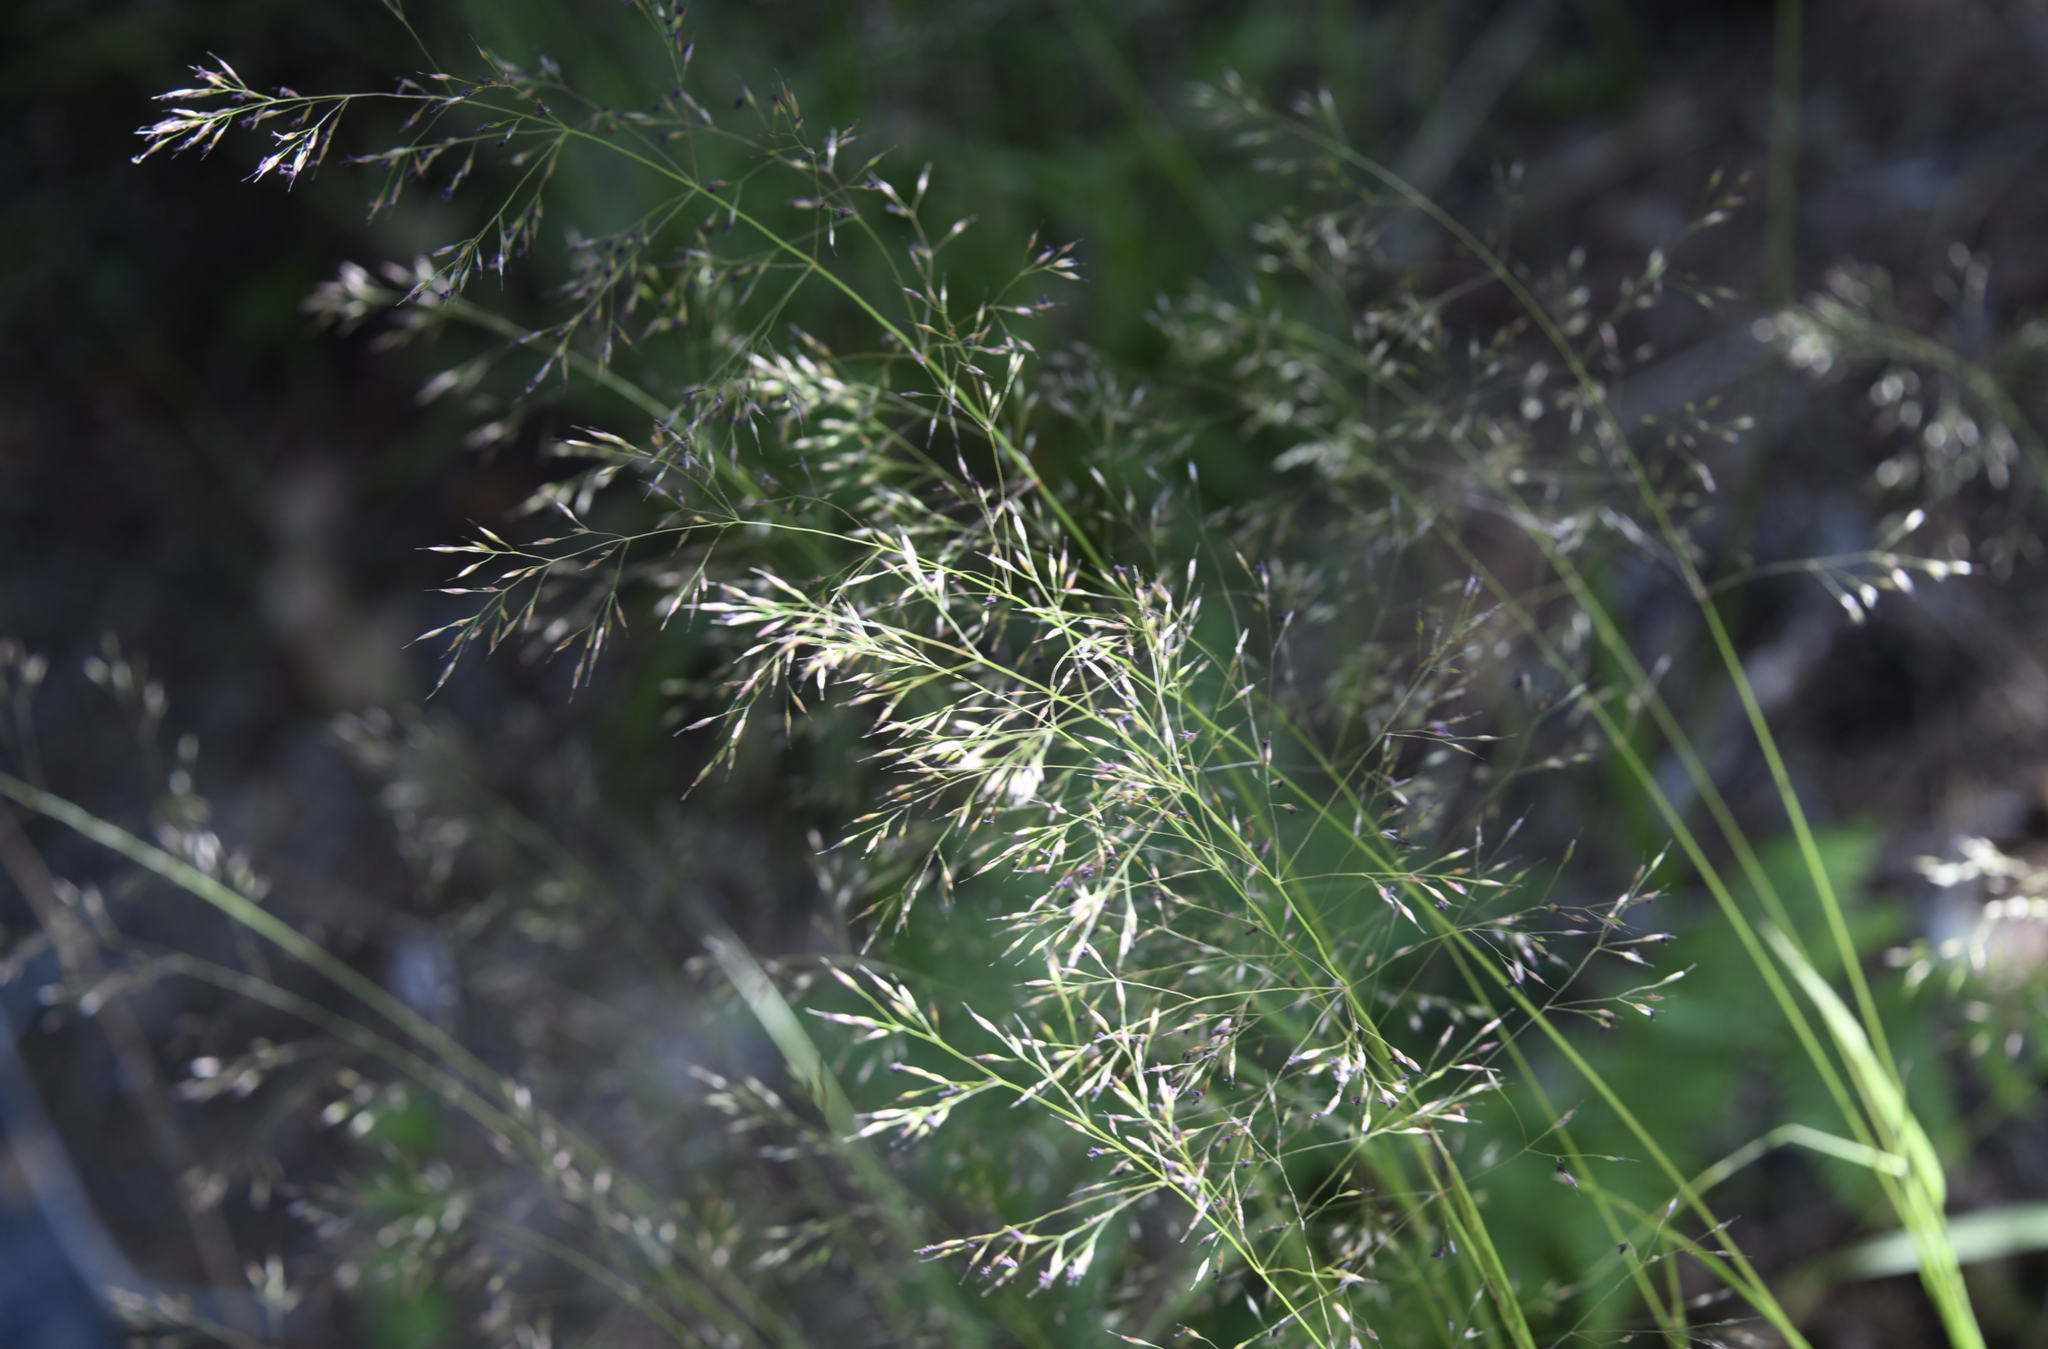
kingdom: Plantae
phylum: Tracheophyta
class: Liliopsida
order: Poales
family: Poaceae
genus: Calamagrostis
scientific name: Calamagrostis bolanderi
